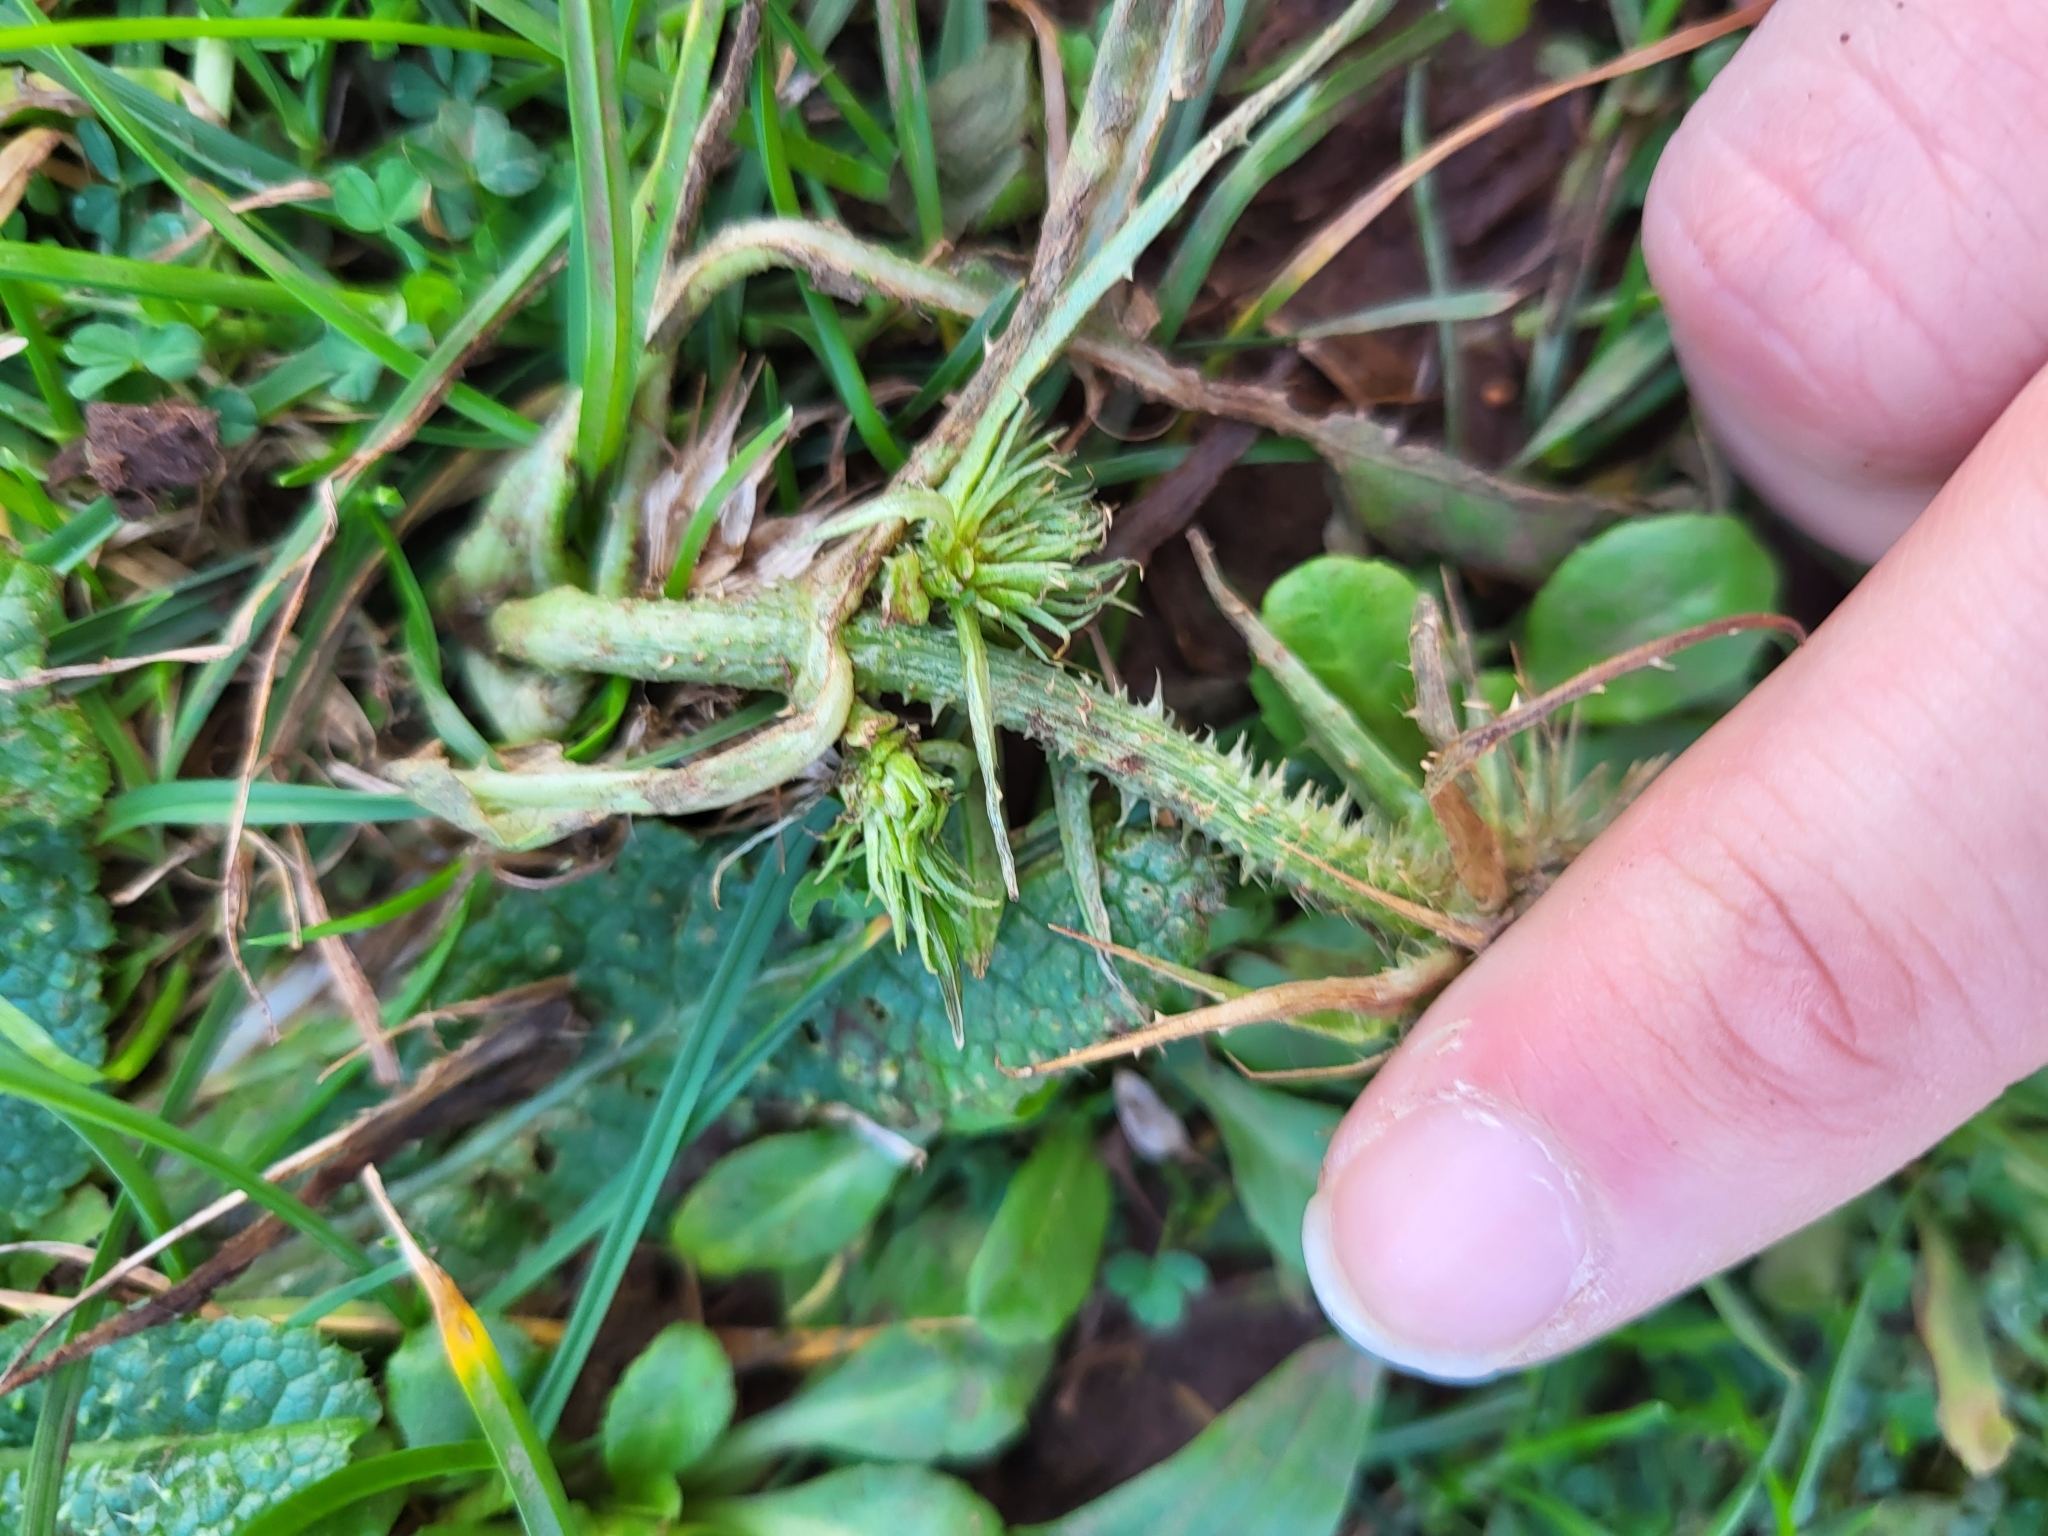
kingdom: Plantae
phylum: Tracheophyta
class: Magnoliopsida
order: Dipsacales
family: Caprifoliaceae
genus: Dipsacus
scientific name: Dipsacus fullonum
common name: Teasel
